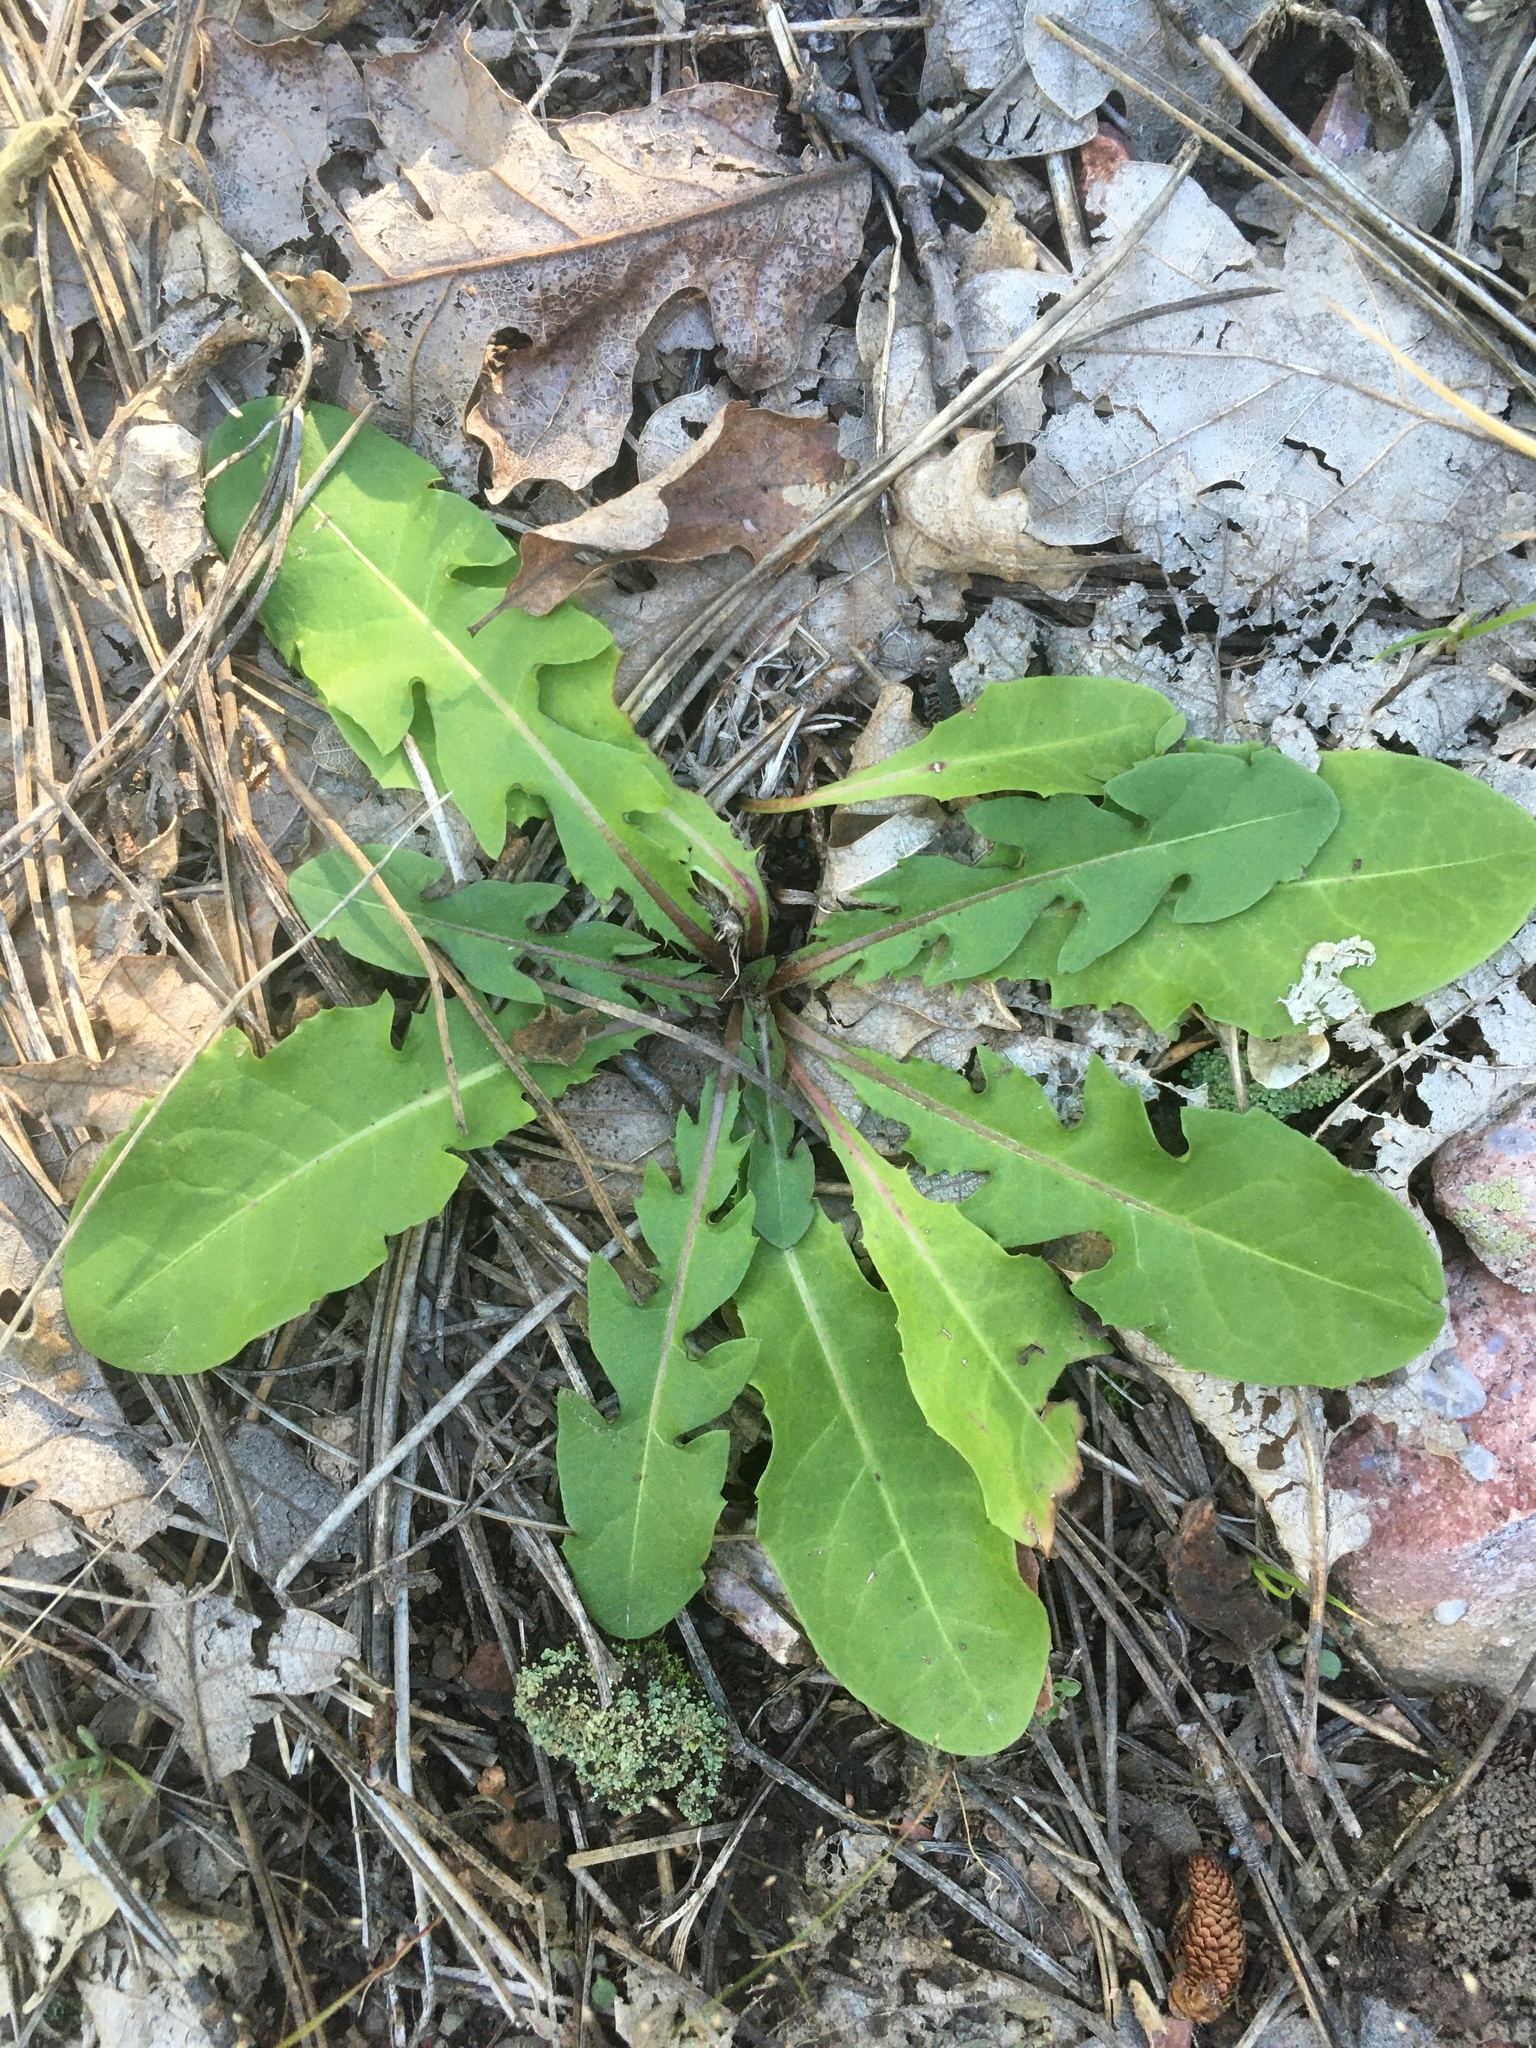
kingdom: Plantae
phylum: Tracheophyta
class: Magnoliopsida
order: Asterales
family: Asteraceae
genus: Taraxacum
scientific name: Taraxacum officinale
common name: Common dandelion
